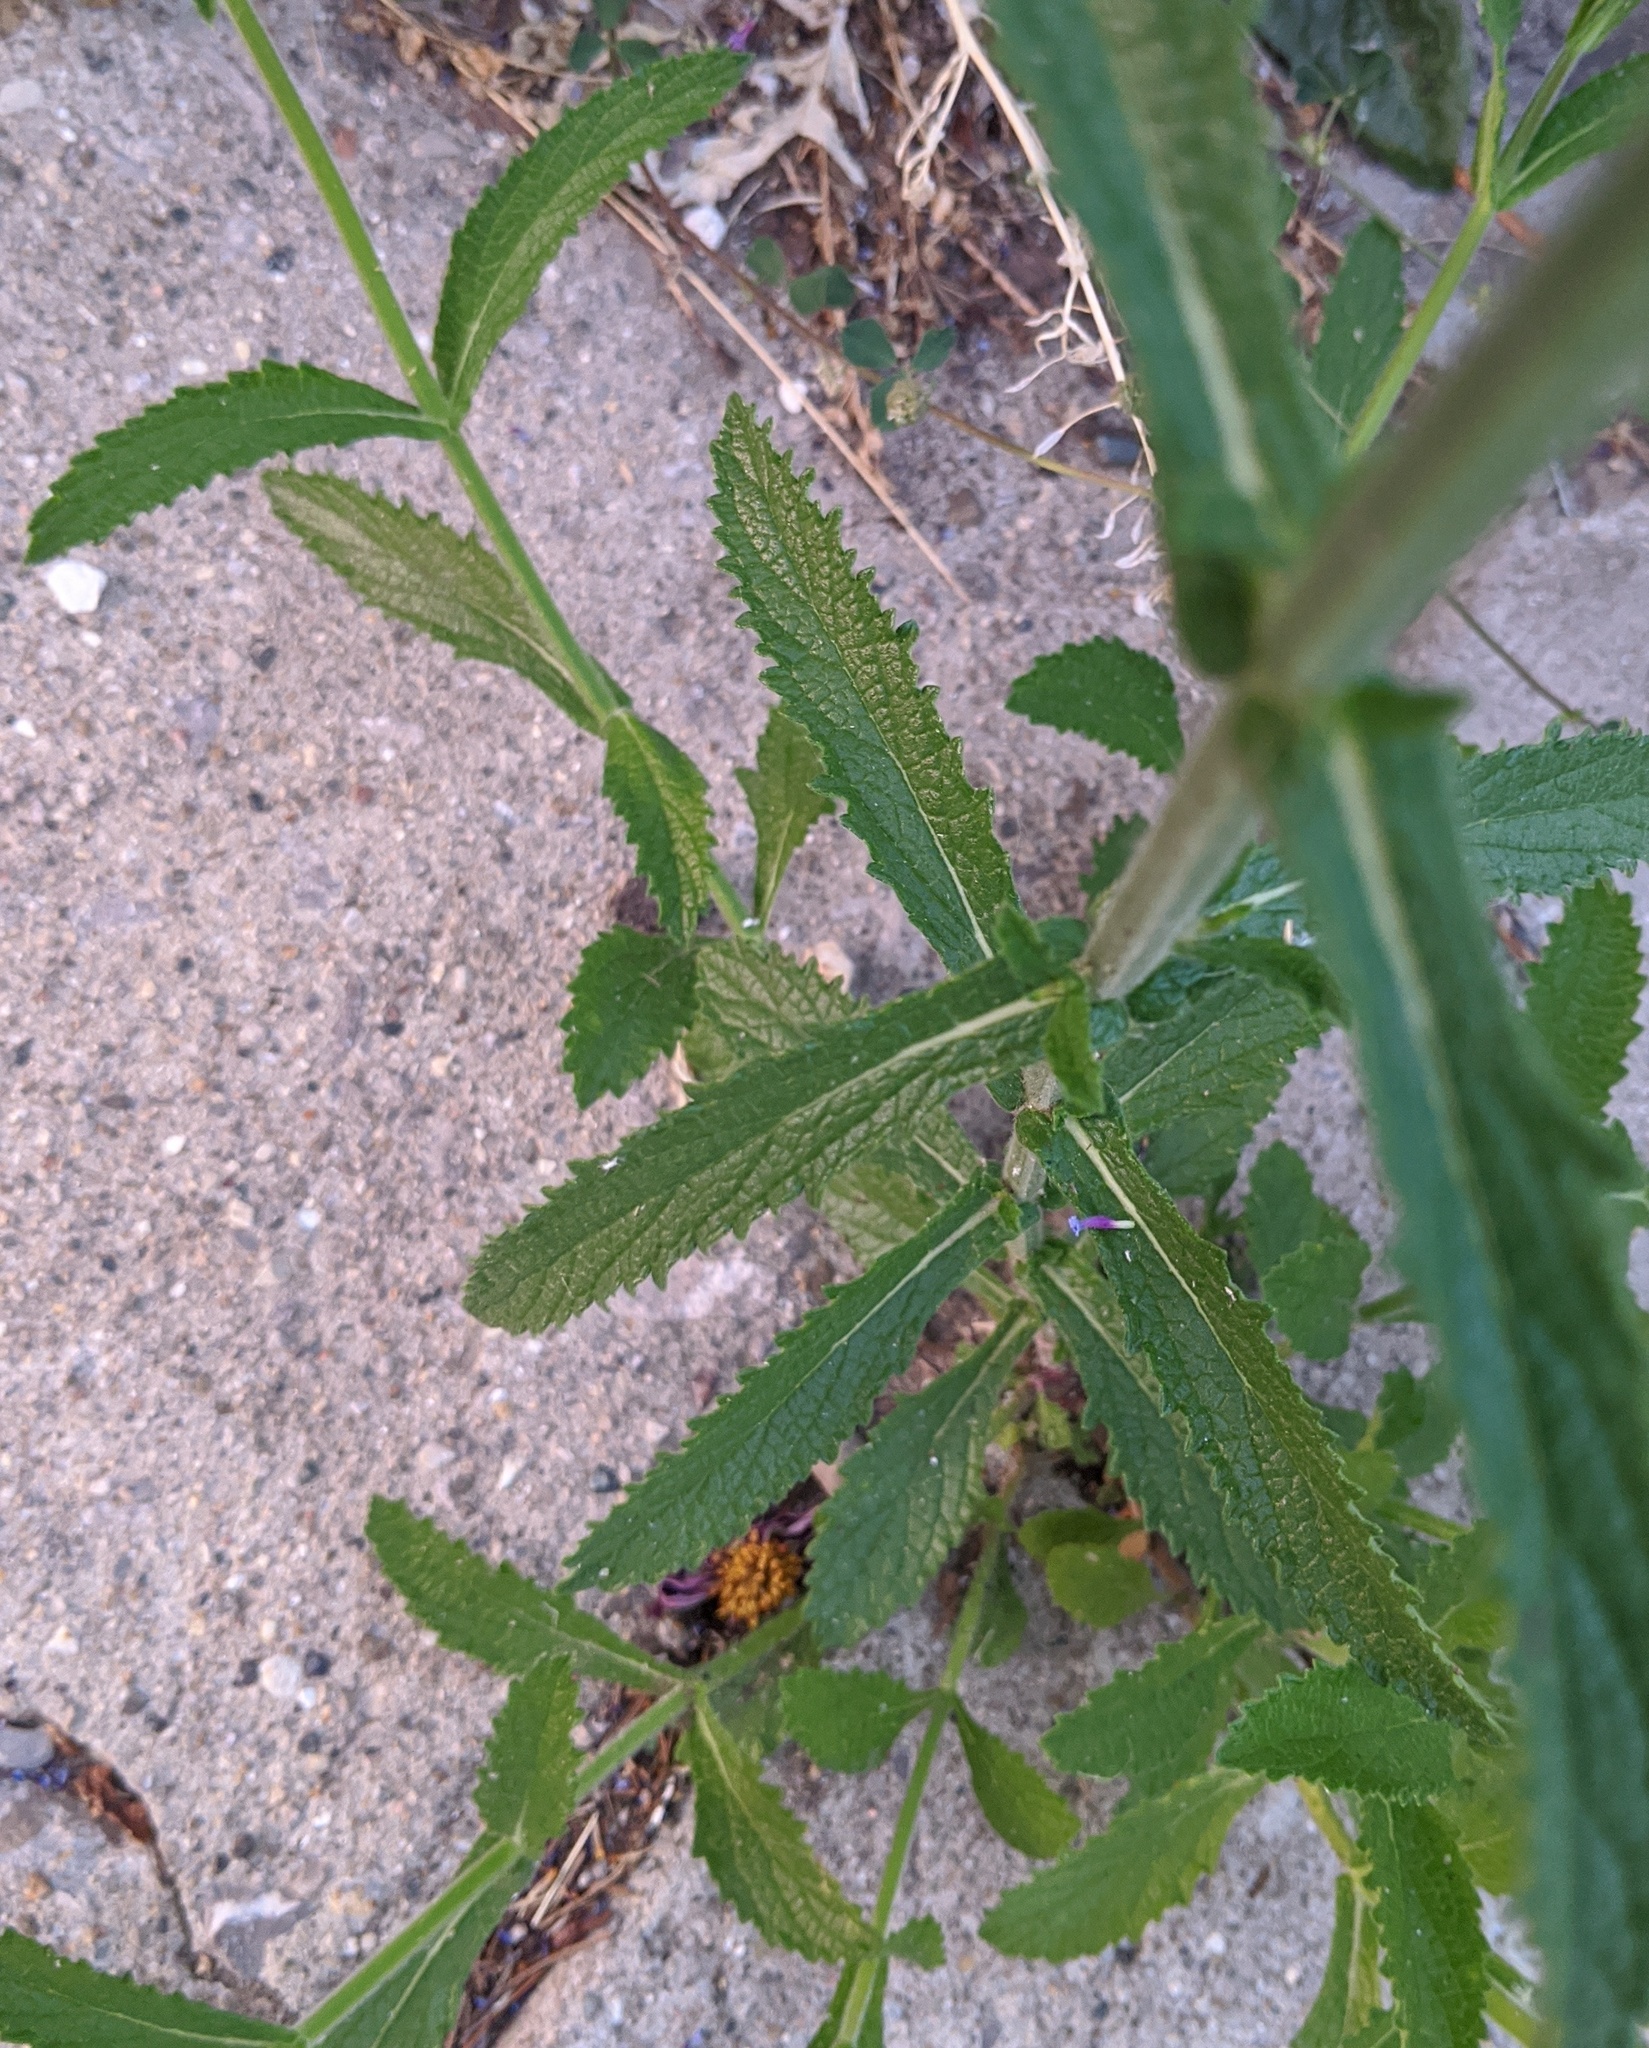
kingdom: Plantae
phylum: Tracheophyta
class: Magnoliopsida
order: Lamiales
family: Verbenaceae
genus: Verbena
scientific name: Verbena bonariensis
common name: Purpletop vervain
